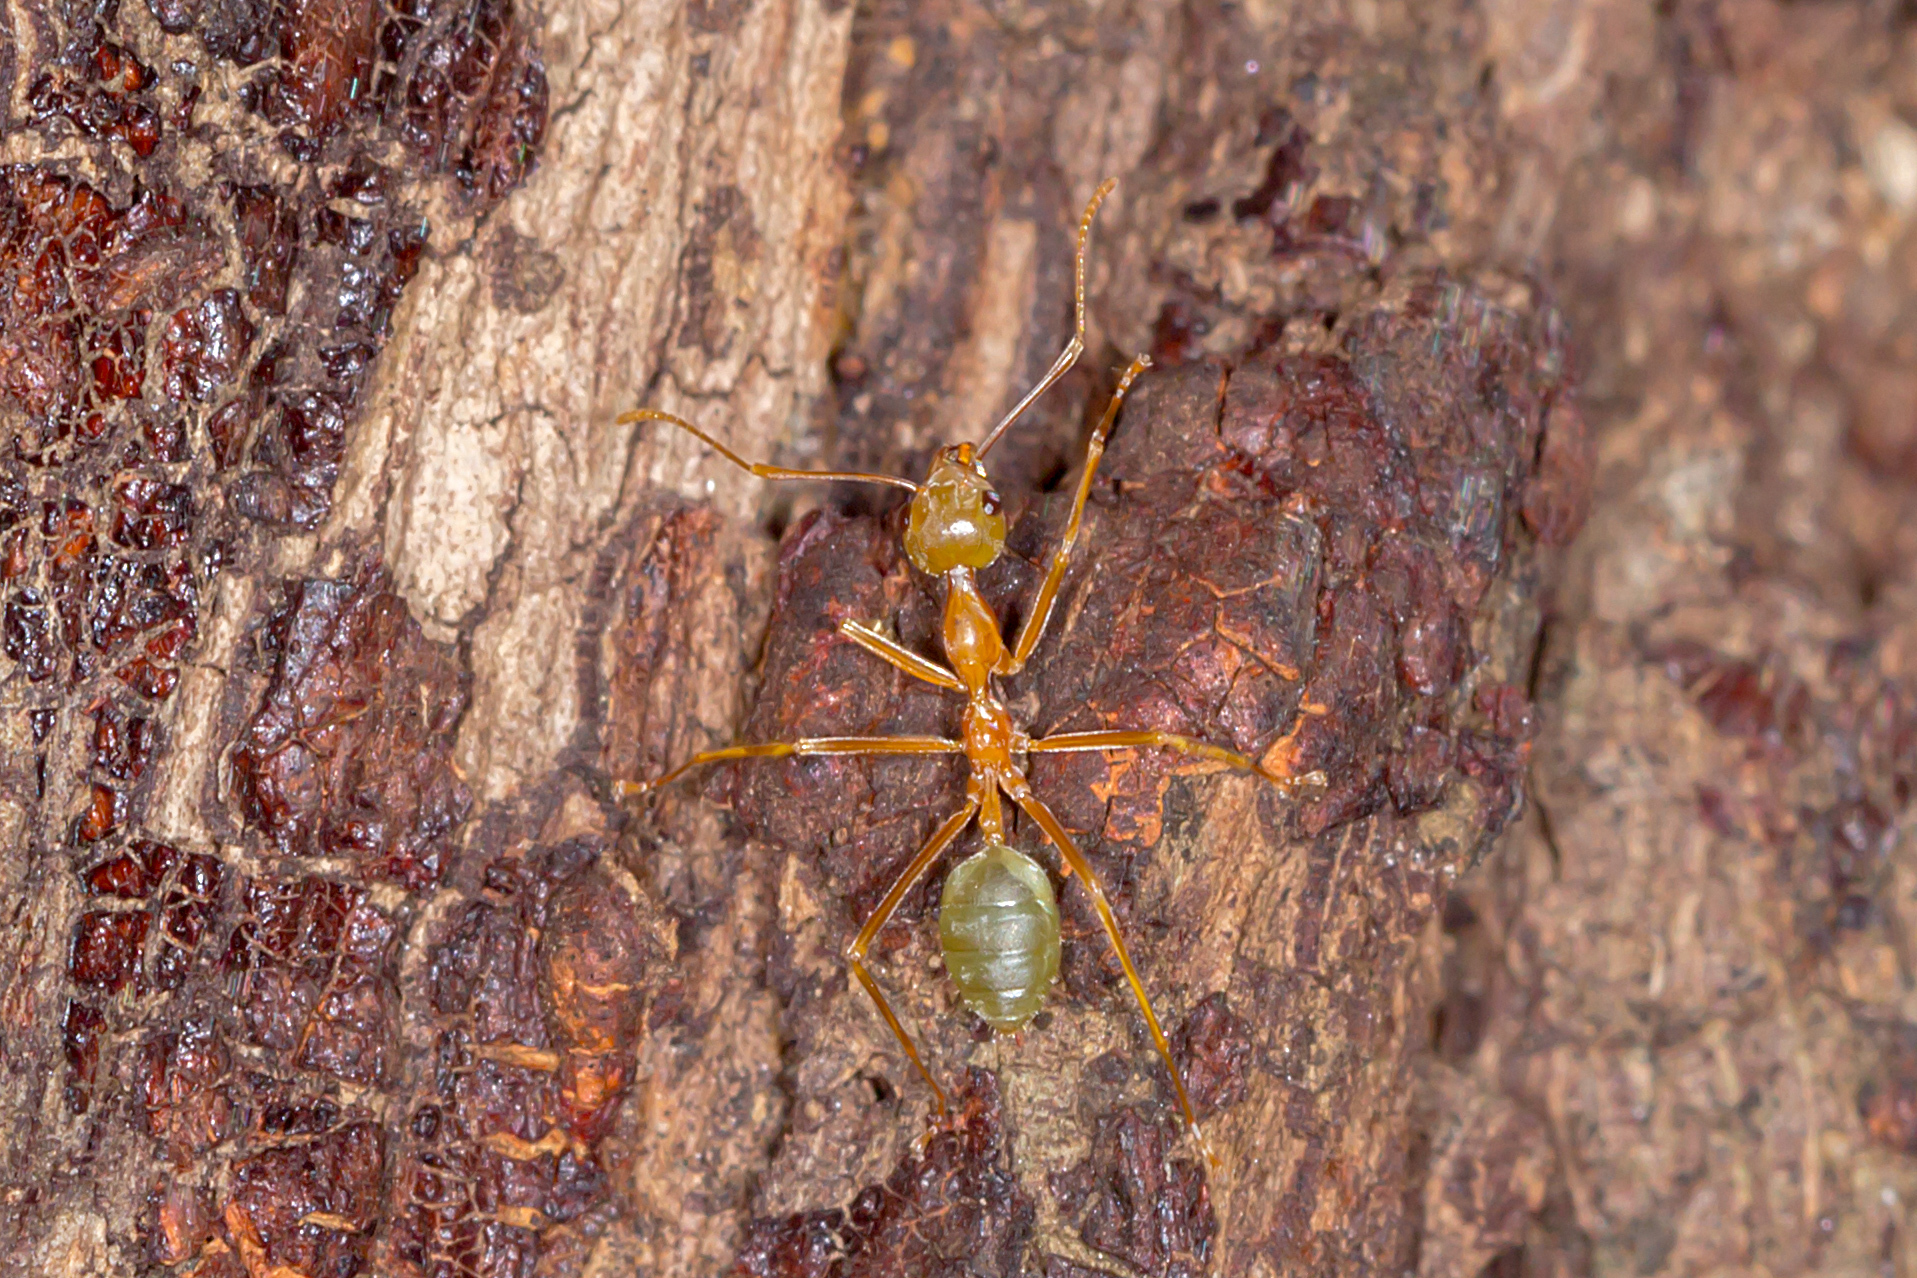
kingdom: Animalia
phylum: Arthropoda
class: Insecta
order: Hymenoptera
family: Formicidae
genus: Oecophylla
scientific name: Oecophylla smaragdina
